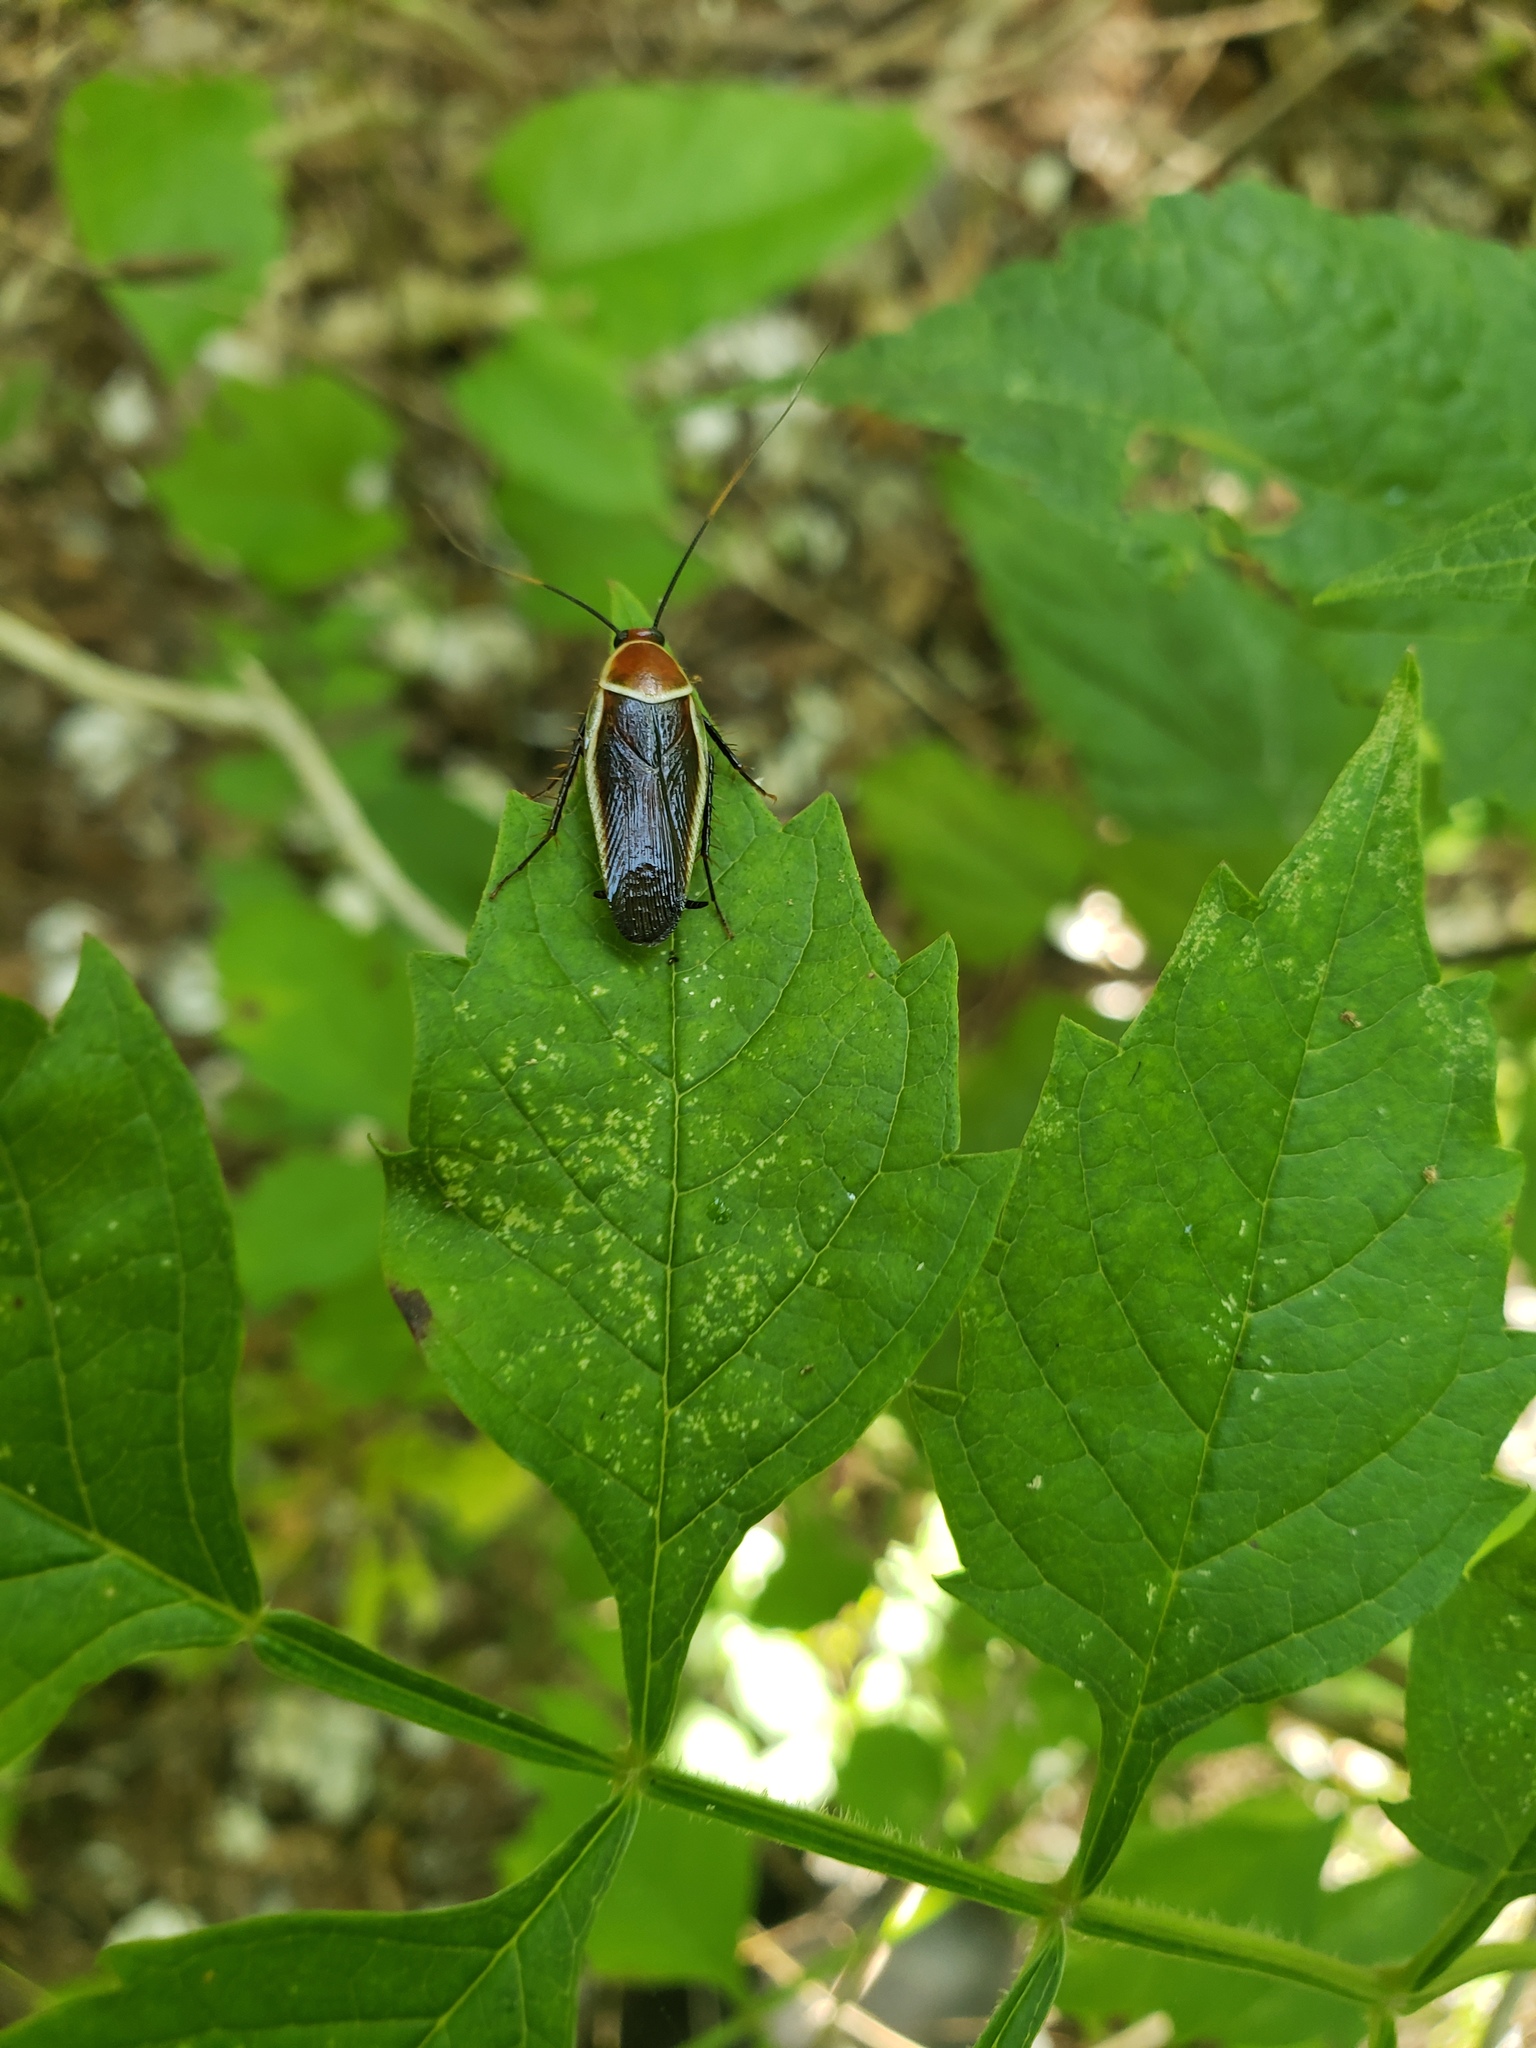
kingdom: Animalia
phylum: Arthropoda
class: Insecta
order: Blattodea
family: Ectobiidae
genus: Pseudomops
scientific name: Pseudomops septentrionalis
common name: Pale-bordered field cockroach
